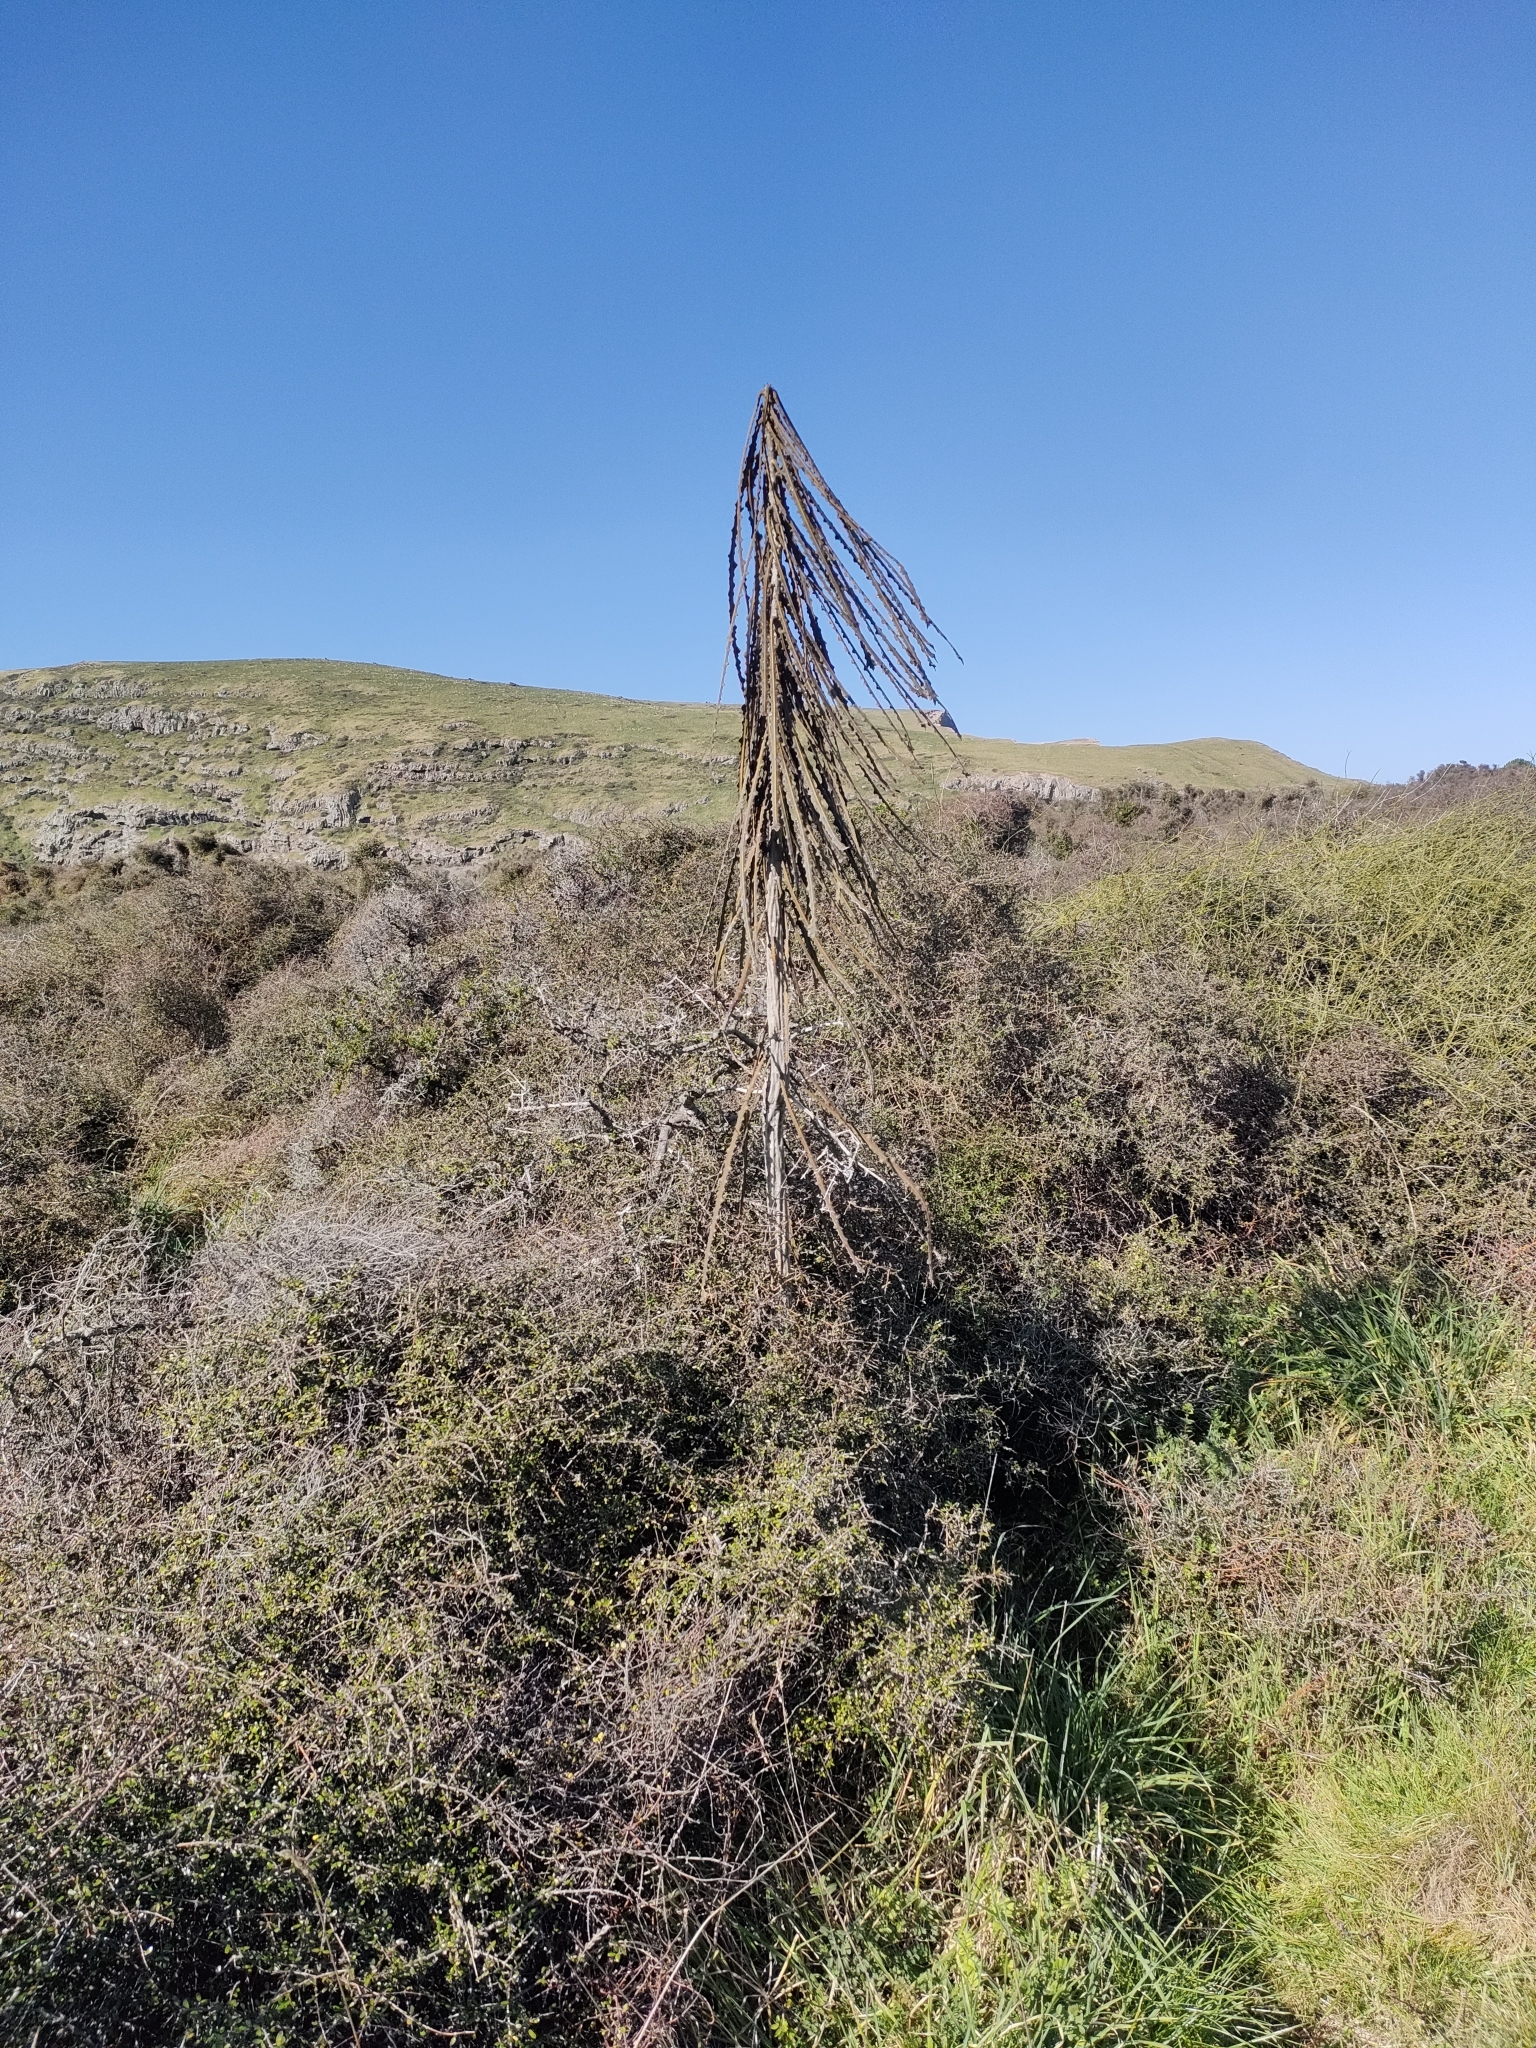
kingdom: Plantae
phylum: Tracheophyta
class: Magnoliopsida
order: Apiales
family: Araliaceae
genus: Pseudopanax
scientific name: Pseudopanax ferox
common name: Fierce lancewood
